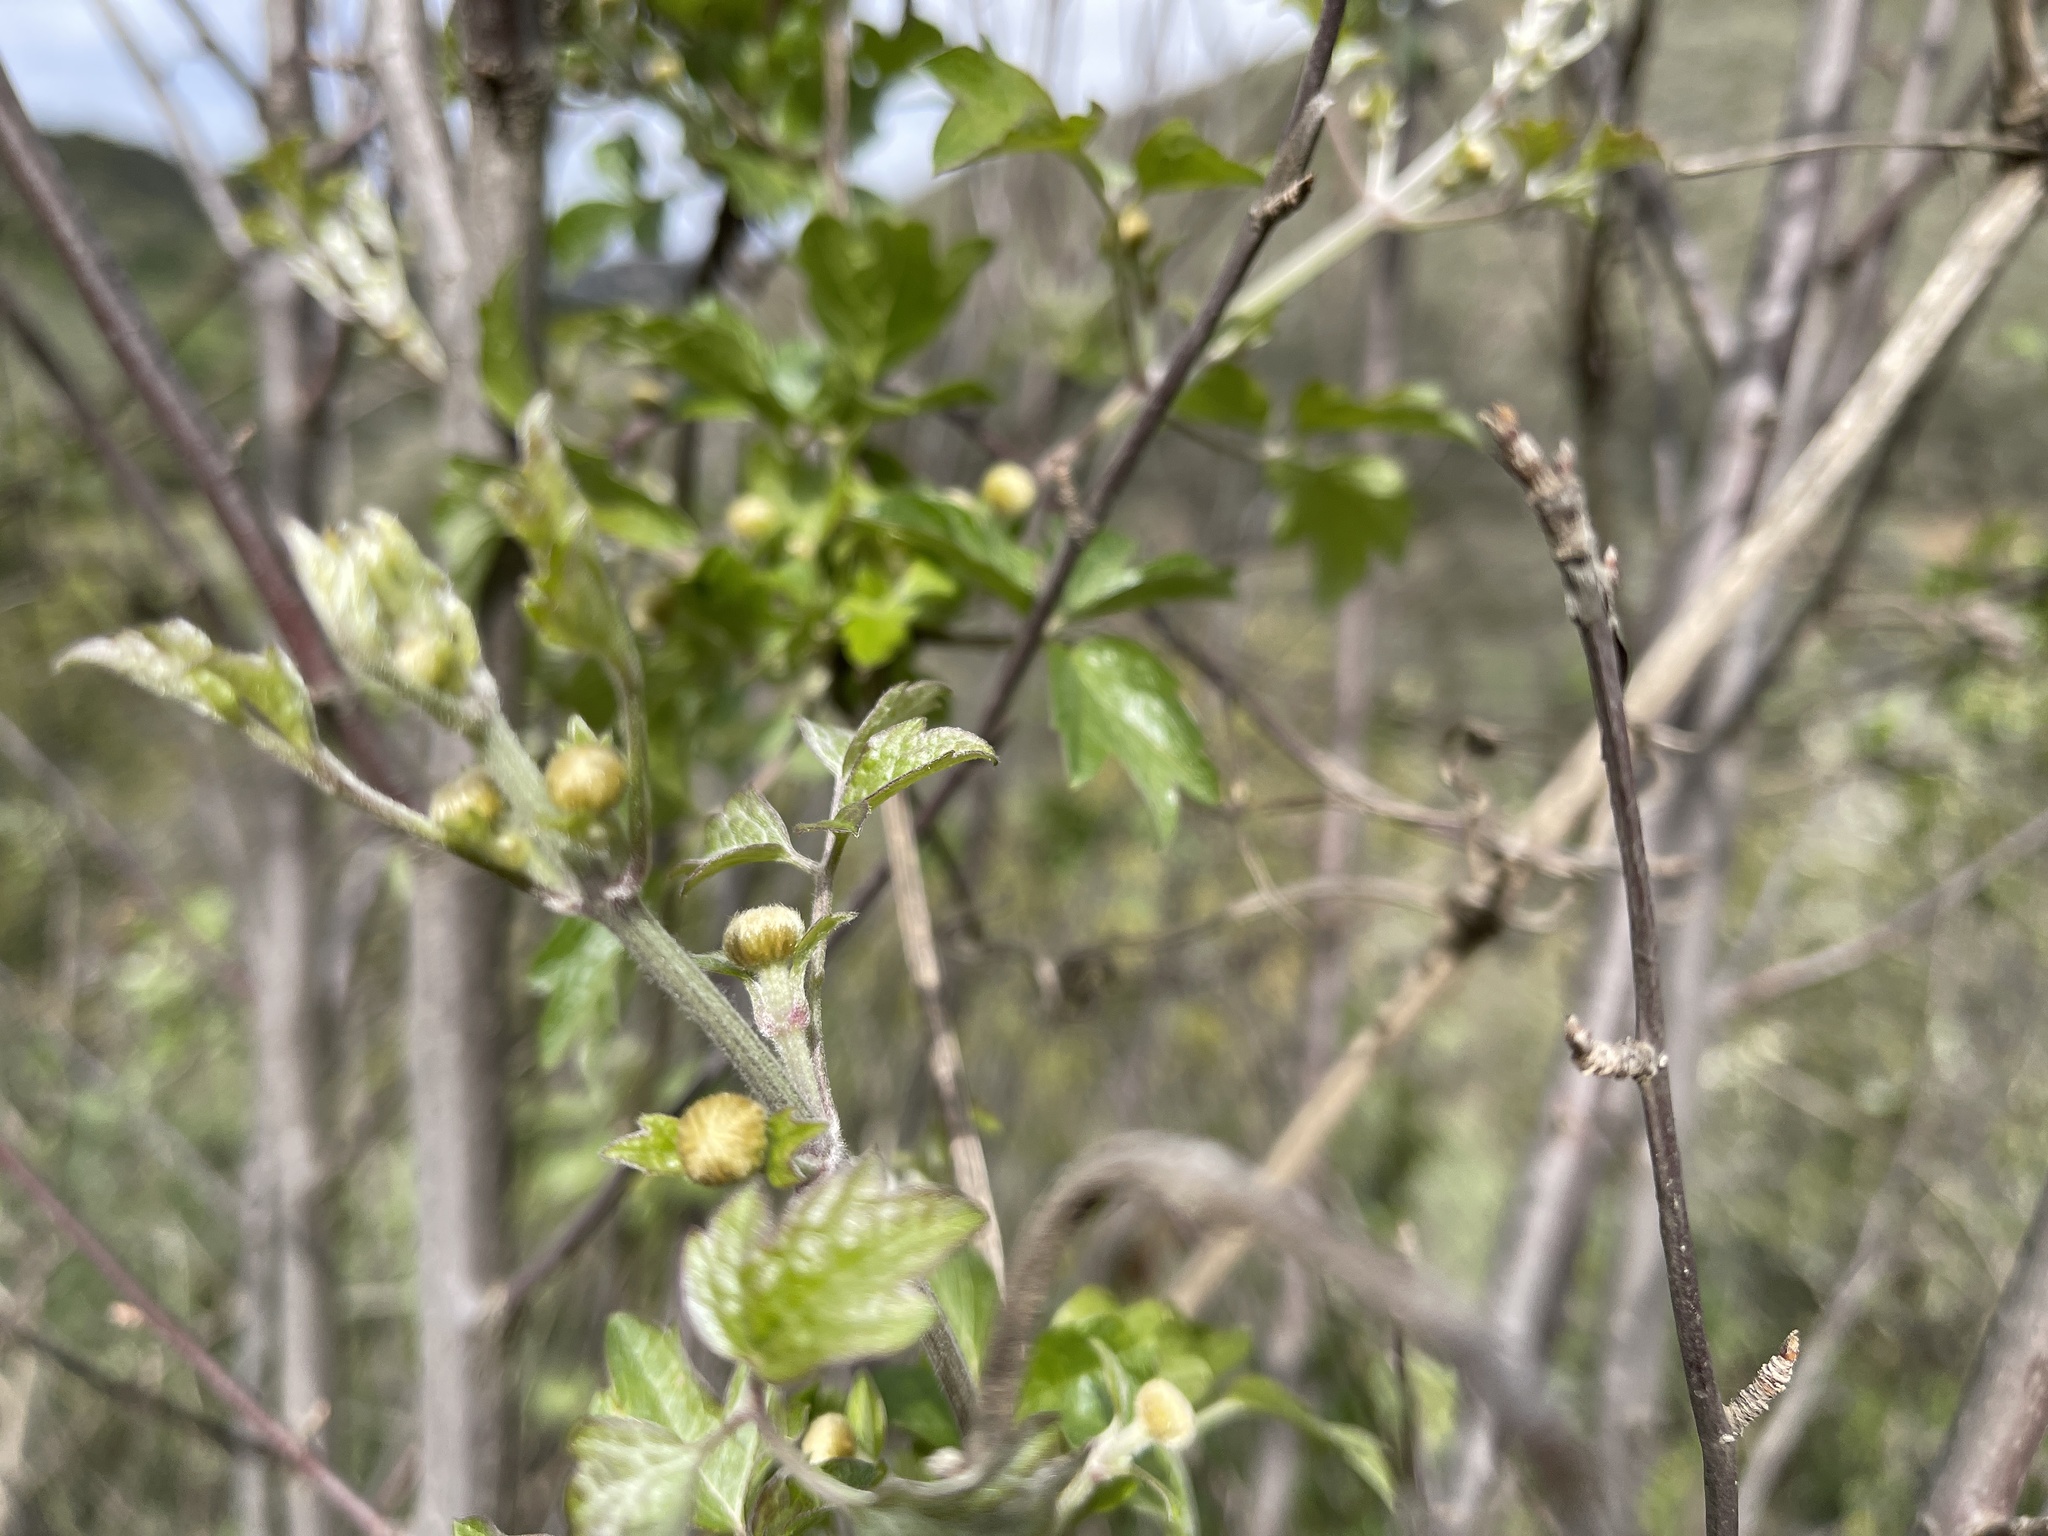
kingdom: Plantae
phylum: Tracheophyta
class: Magnoliopsida
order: Ranunculales
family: Ranunculaceae
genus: Clematis
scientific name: Clematis lasiantha
